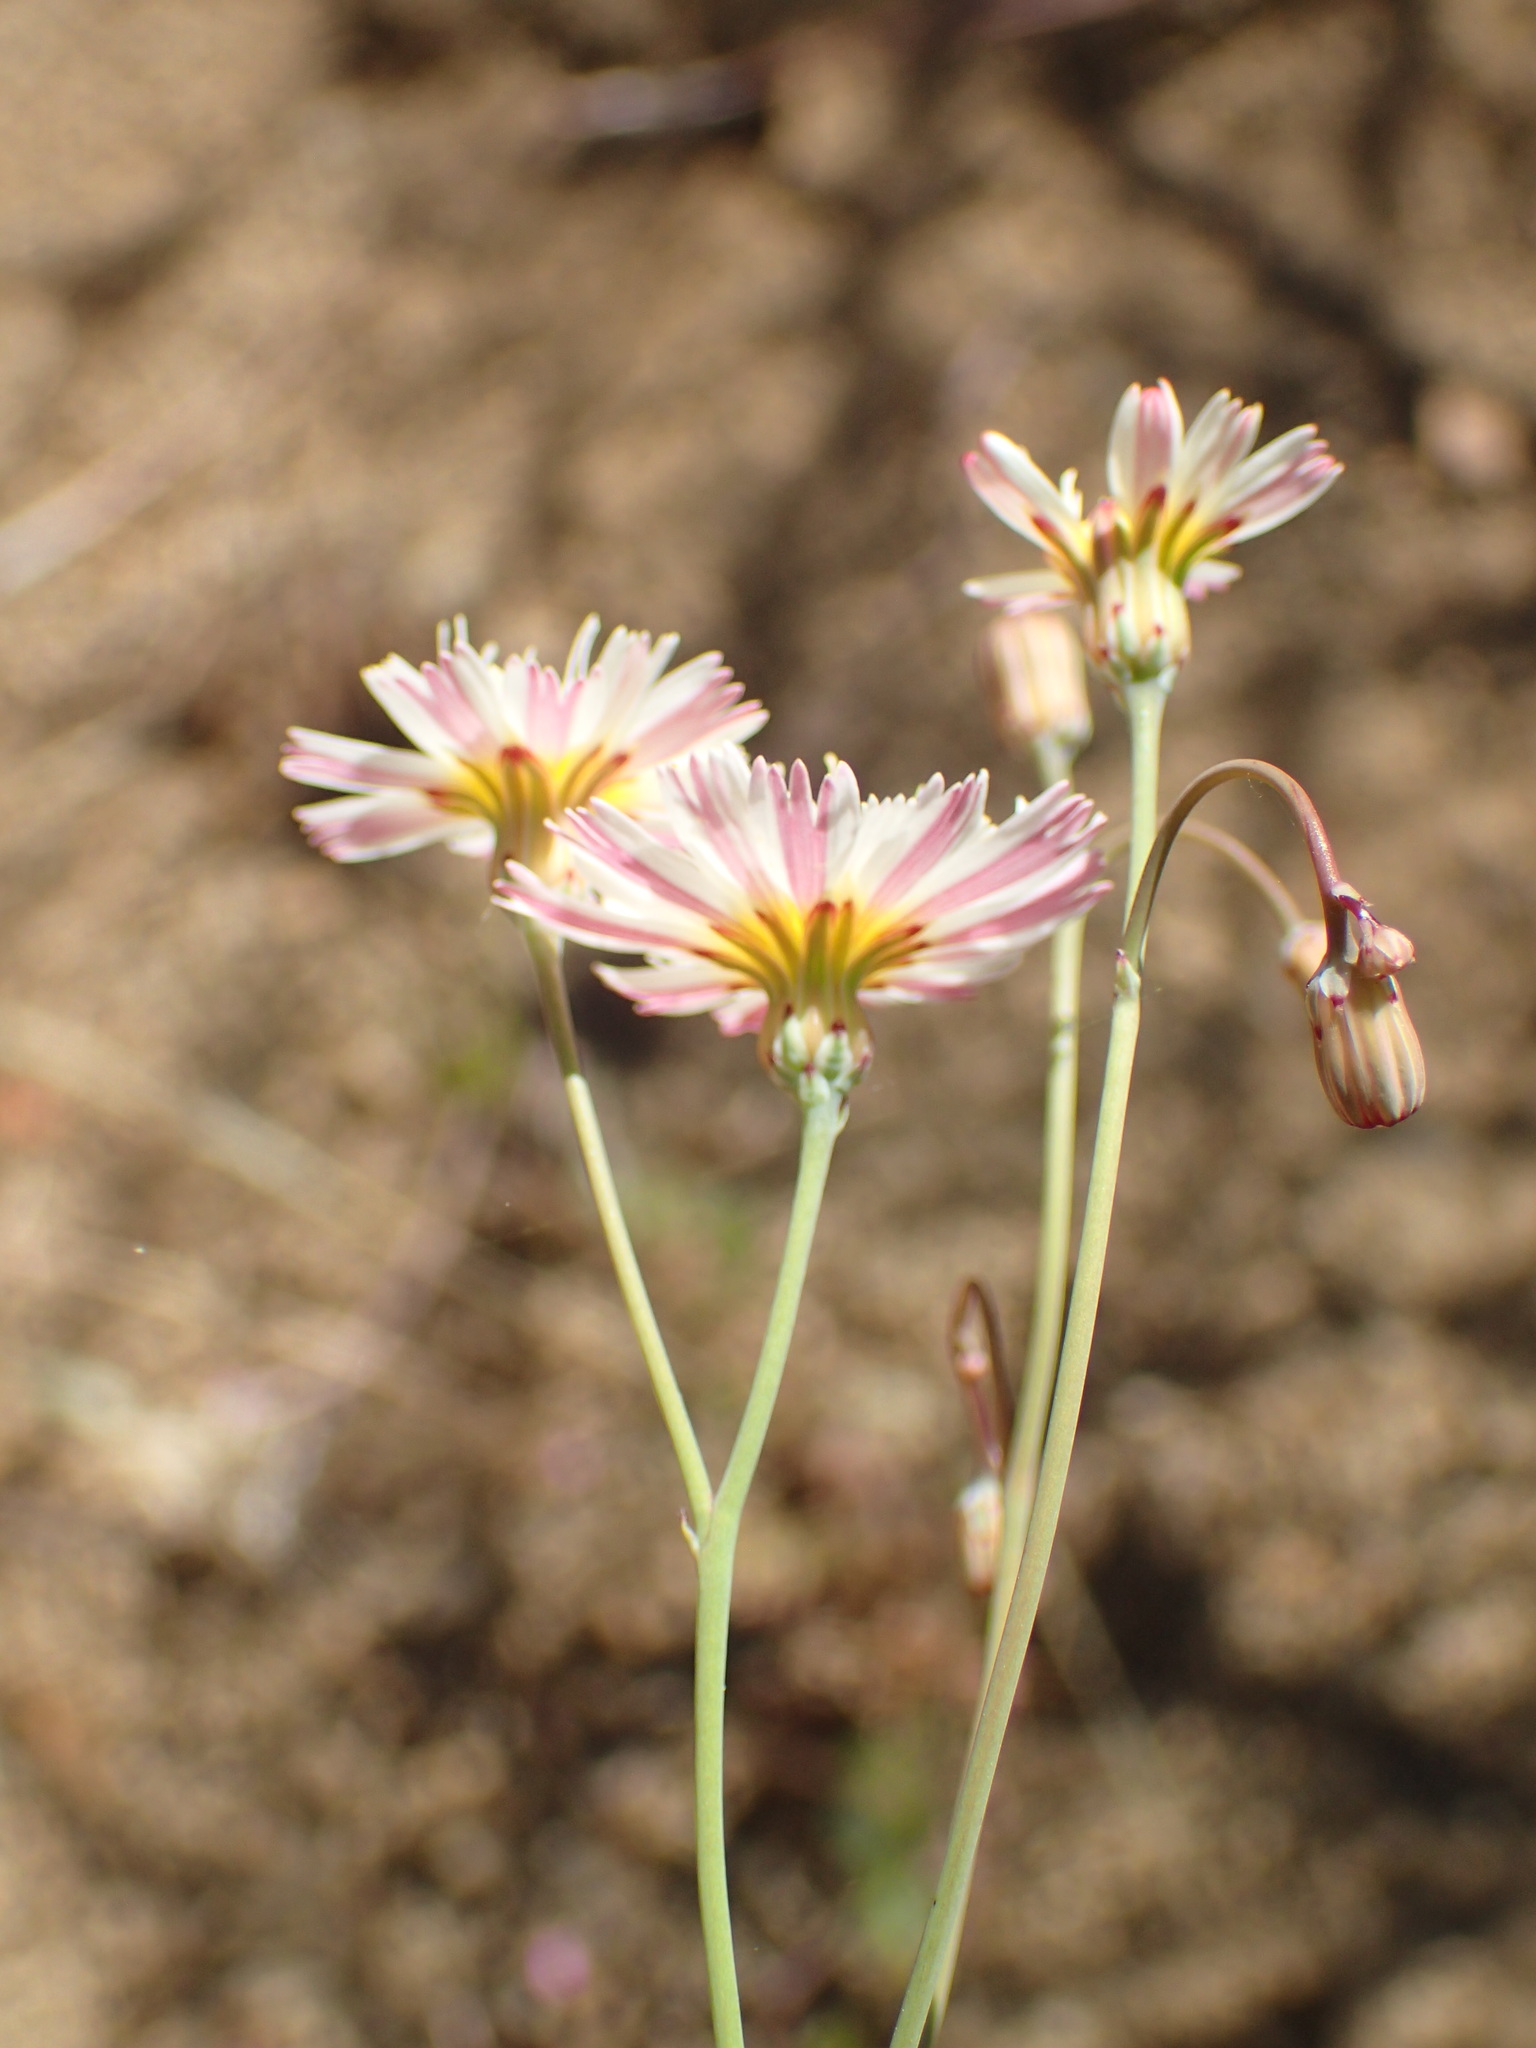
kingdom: Plantae
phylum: Tracheophyta
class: Magnoliopsida
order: Asterales
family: Asteraceae
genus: Malacothrix
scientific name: Malacothrix floccifera
